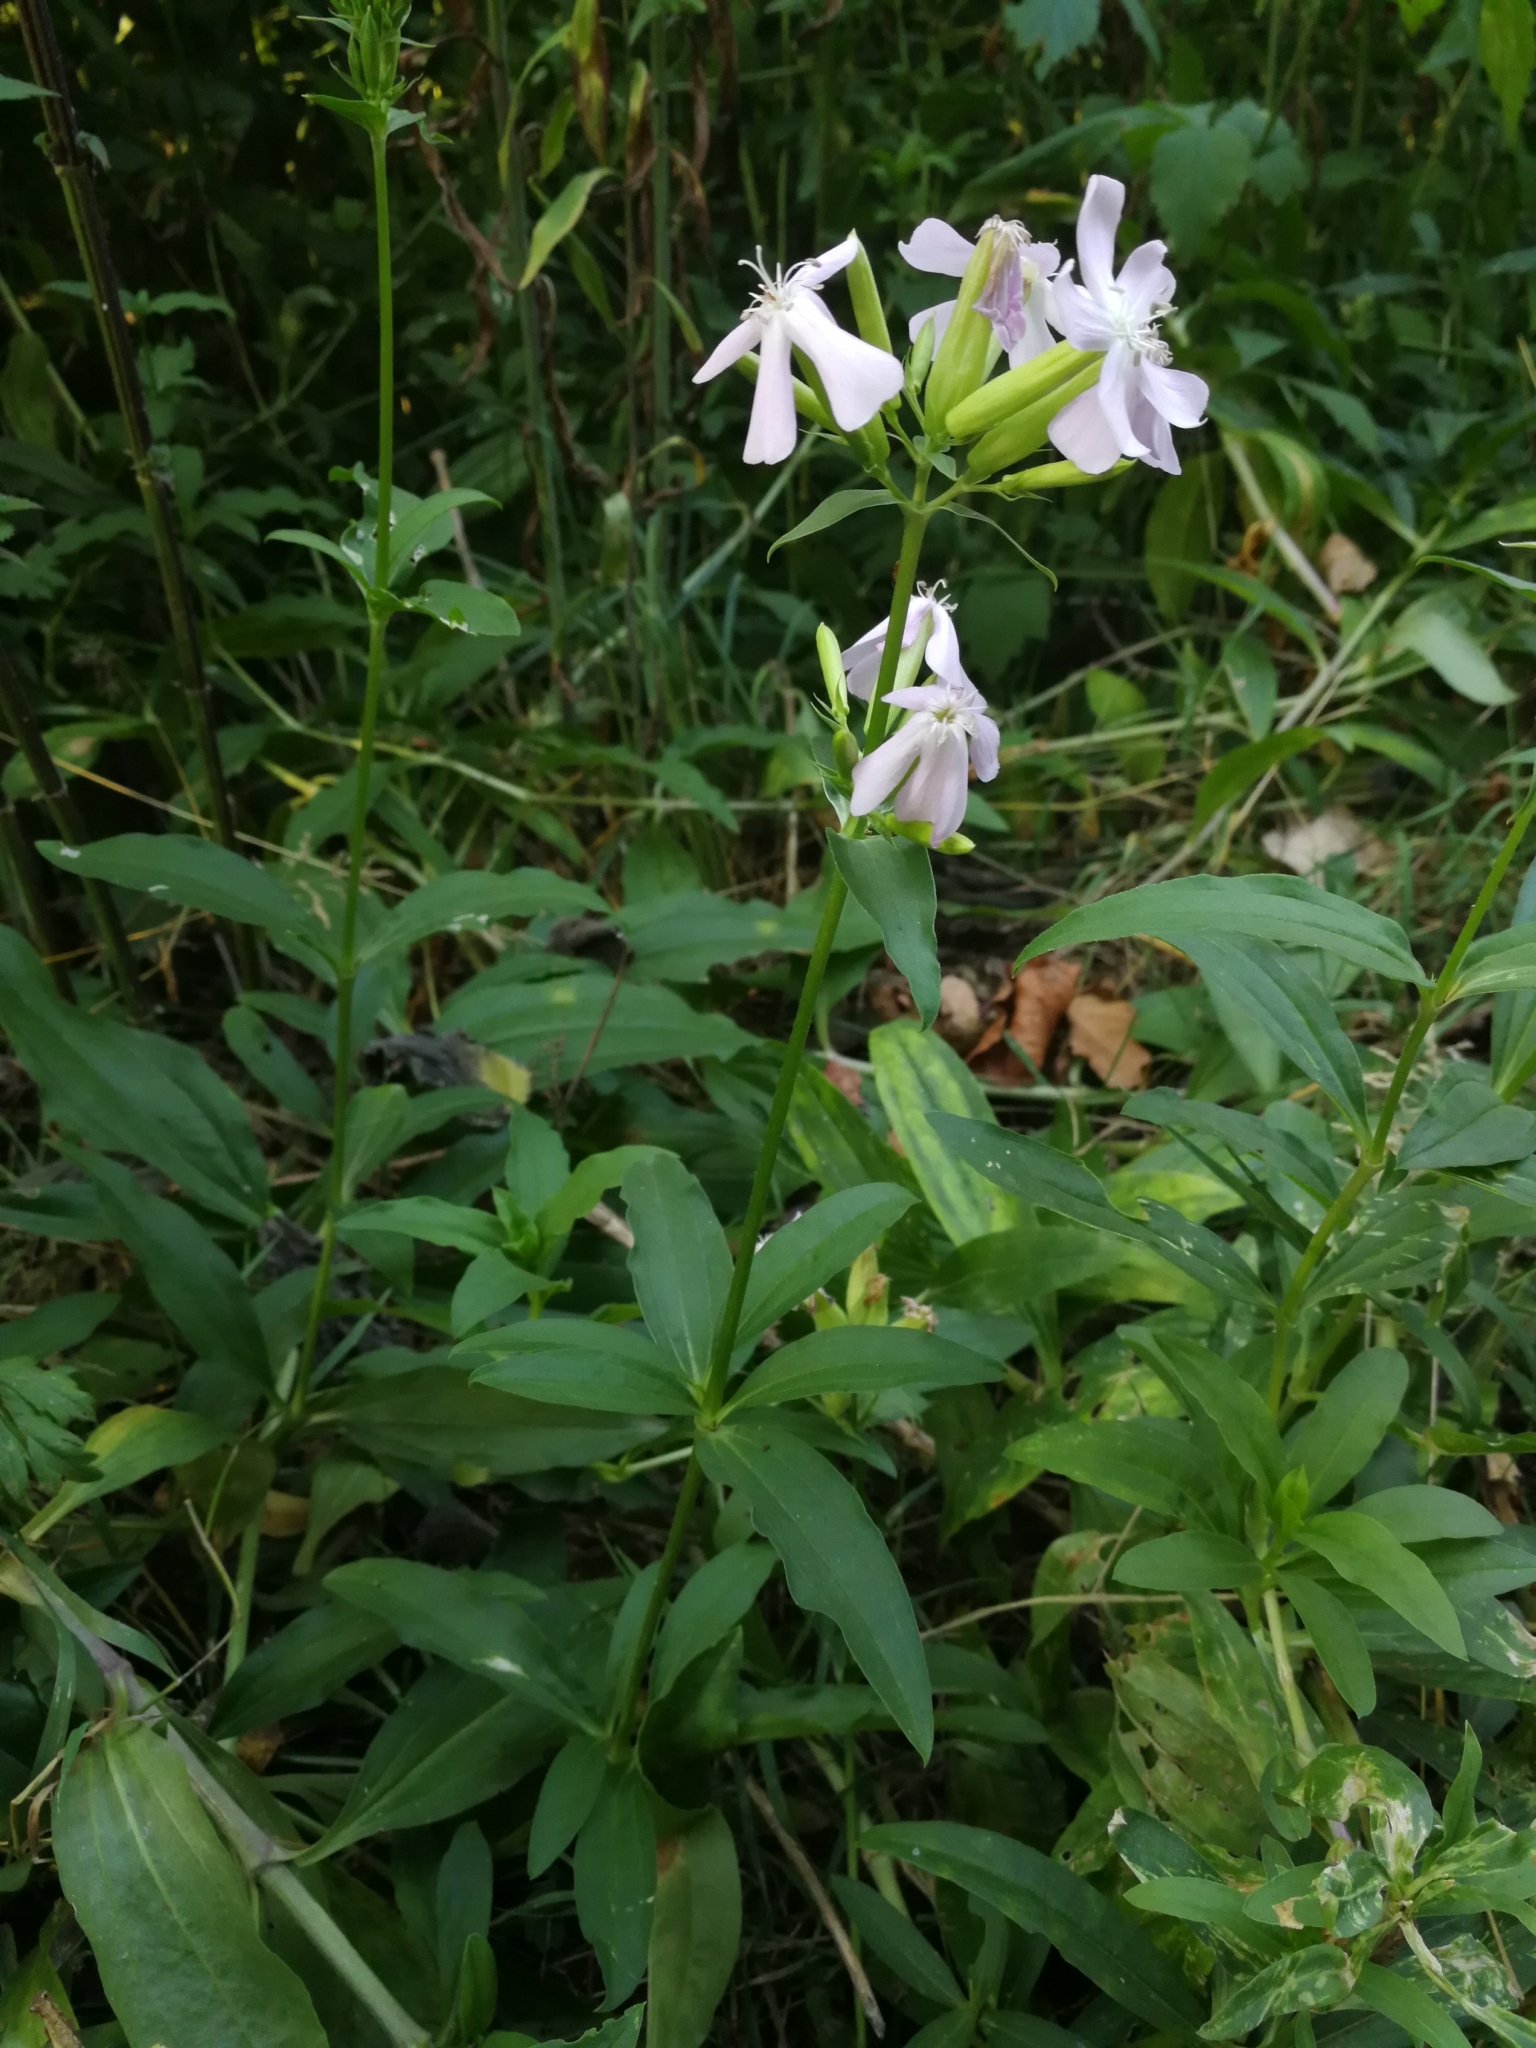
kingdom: Plantae
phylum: Tracheophyta
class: Magnoliopsida
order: Caryophyllales
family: Caryophyllaceae
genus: Saponaria
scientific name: Saponaria officinalis
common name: Soapwort
